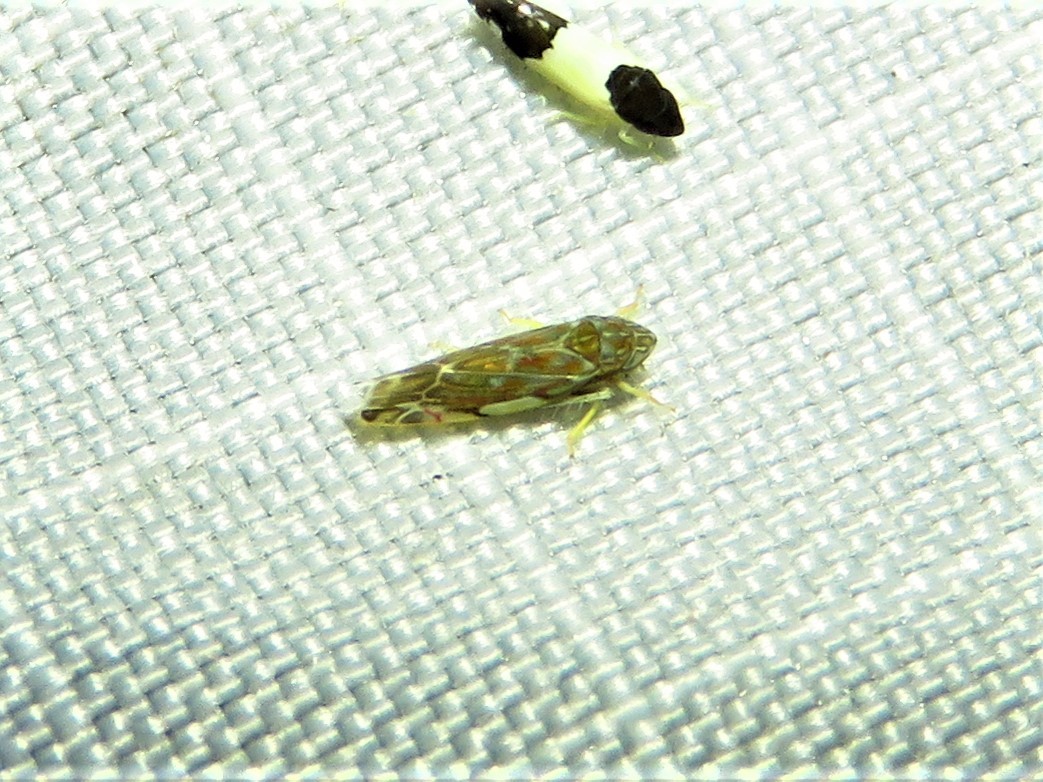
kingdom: Animalia
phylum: Arthropoda
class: Insecta
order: Hemiptera
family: Cicadellidae
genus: Erasmoneura
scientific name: Erasmoneura vulnerata
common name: The wounded leafhopper
